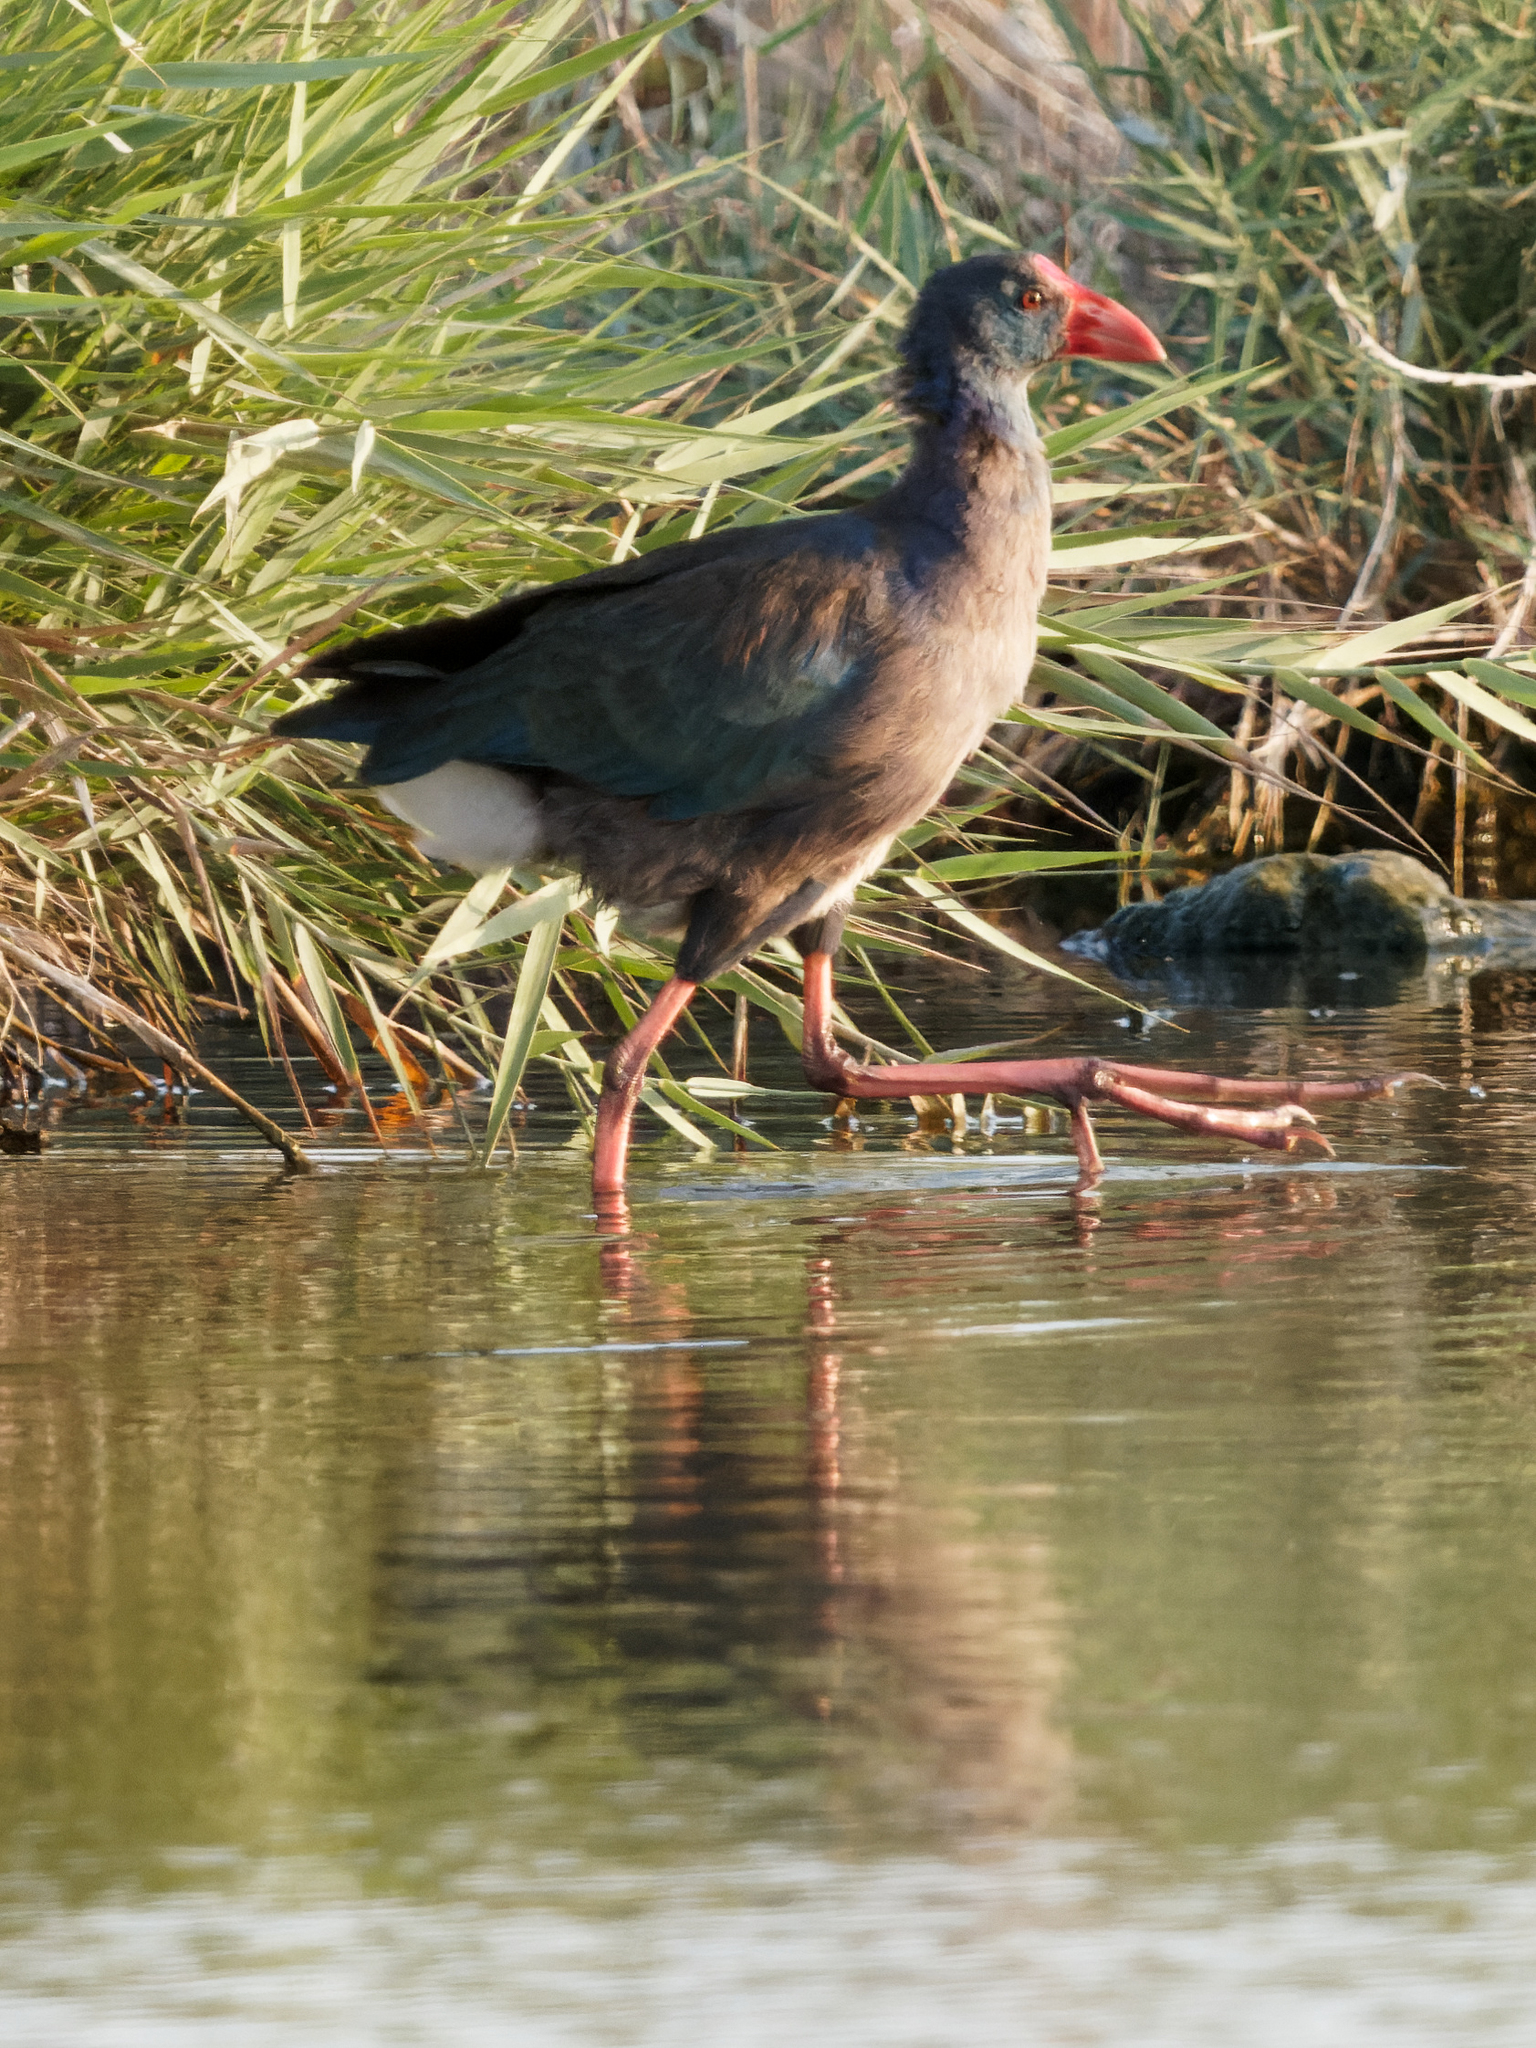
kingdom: Animalia
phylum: Chordata
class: Aves
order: Gruiformes
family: Rallidae
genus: Porphyrio
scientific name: Porphyrio porphyrio
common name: Purple swamphen
